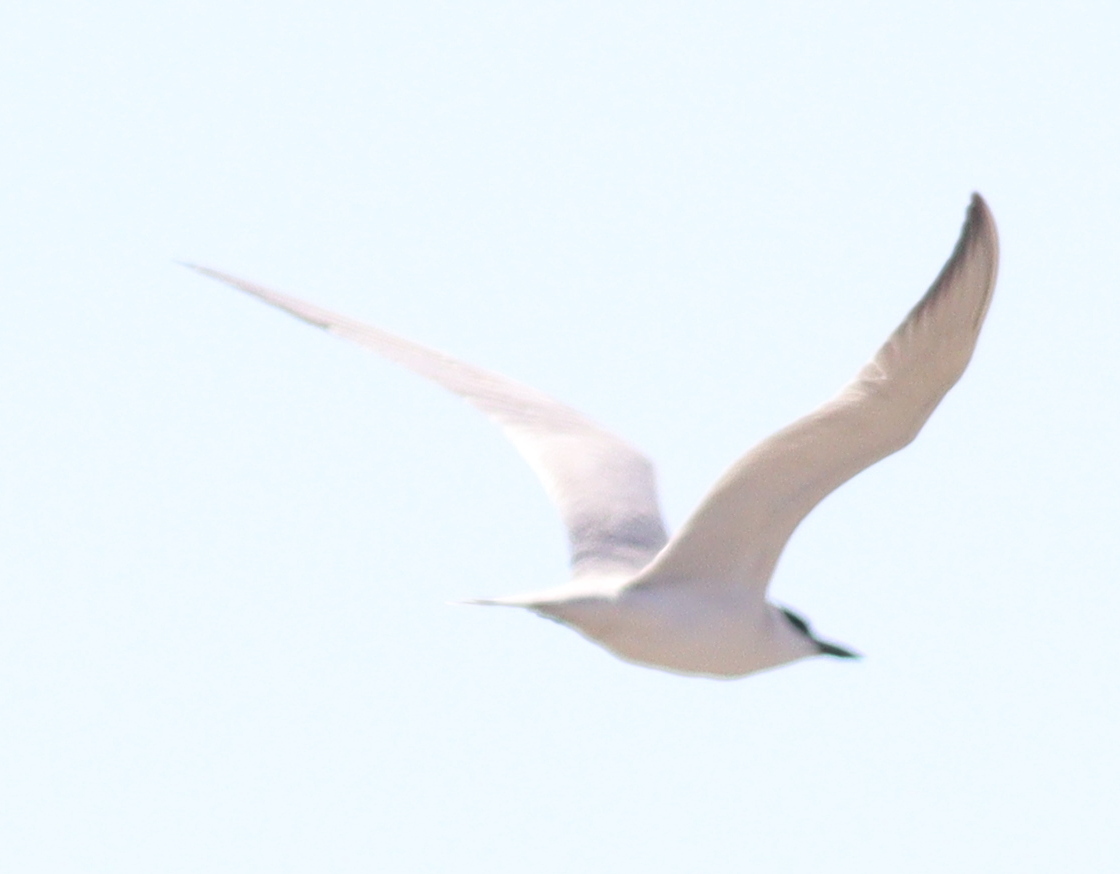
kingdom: Animalia
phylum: Chordata
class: Aves
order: Charadriiformes
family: Laridae
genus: Gelochelidon
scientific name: Gelochelidon nilotica
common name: Gull-billed tern
